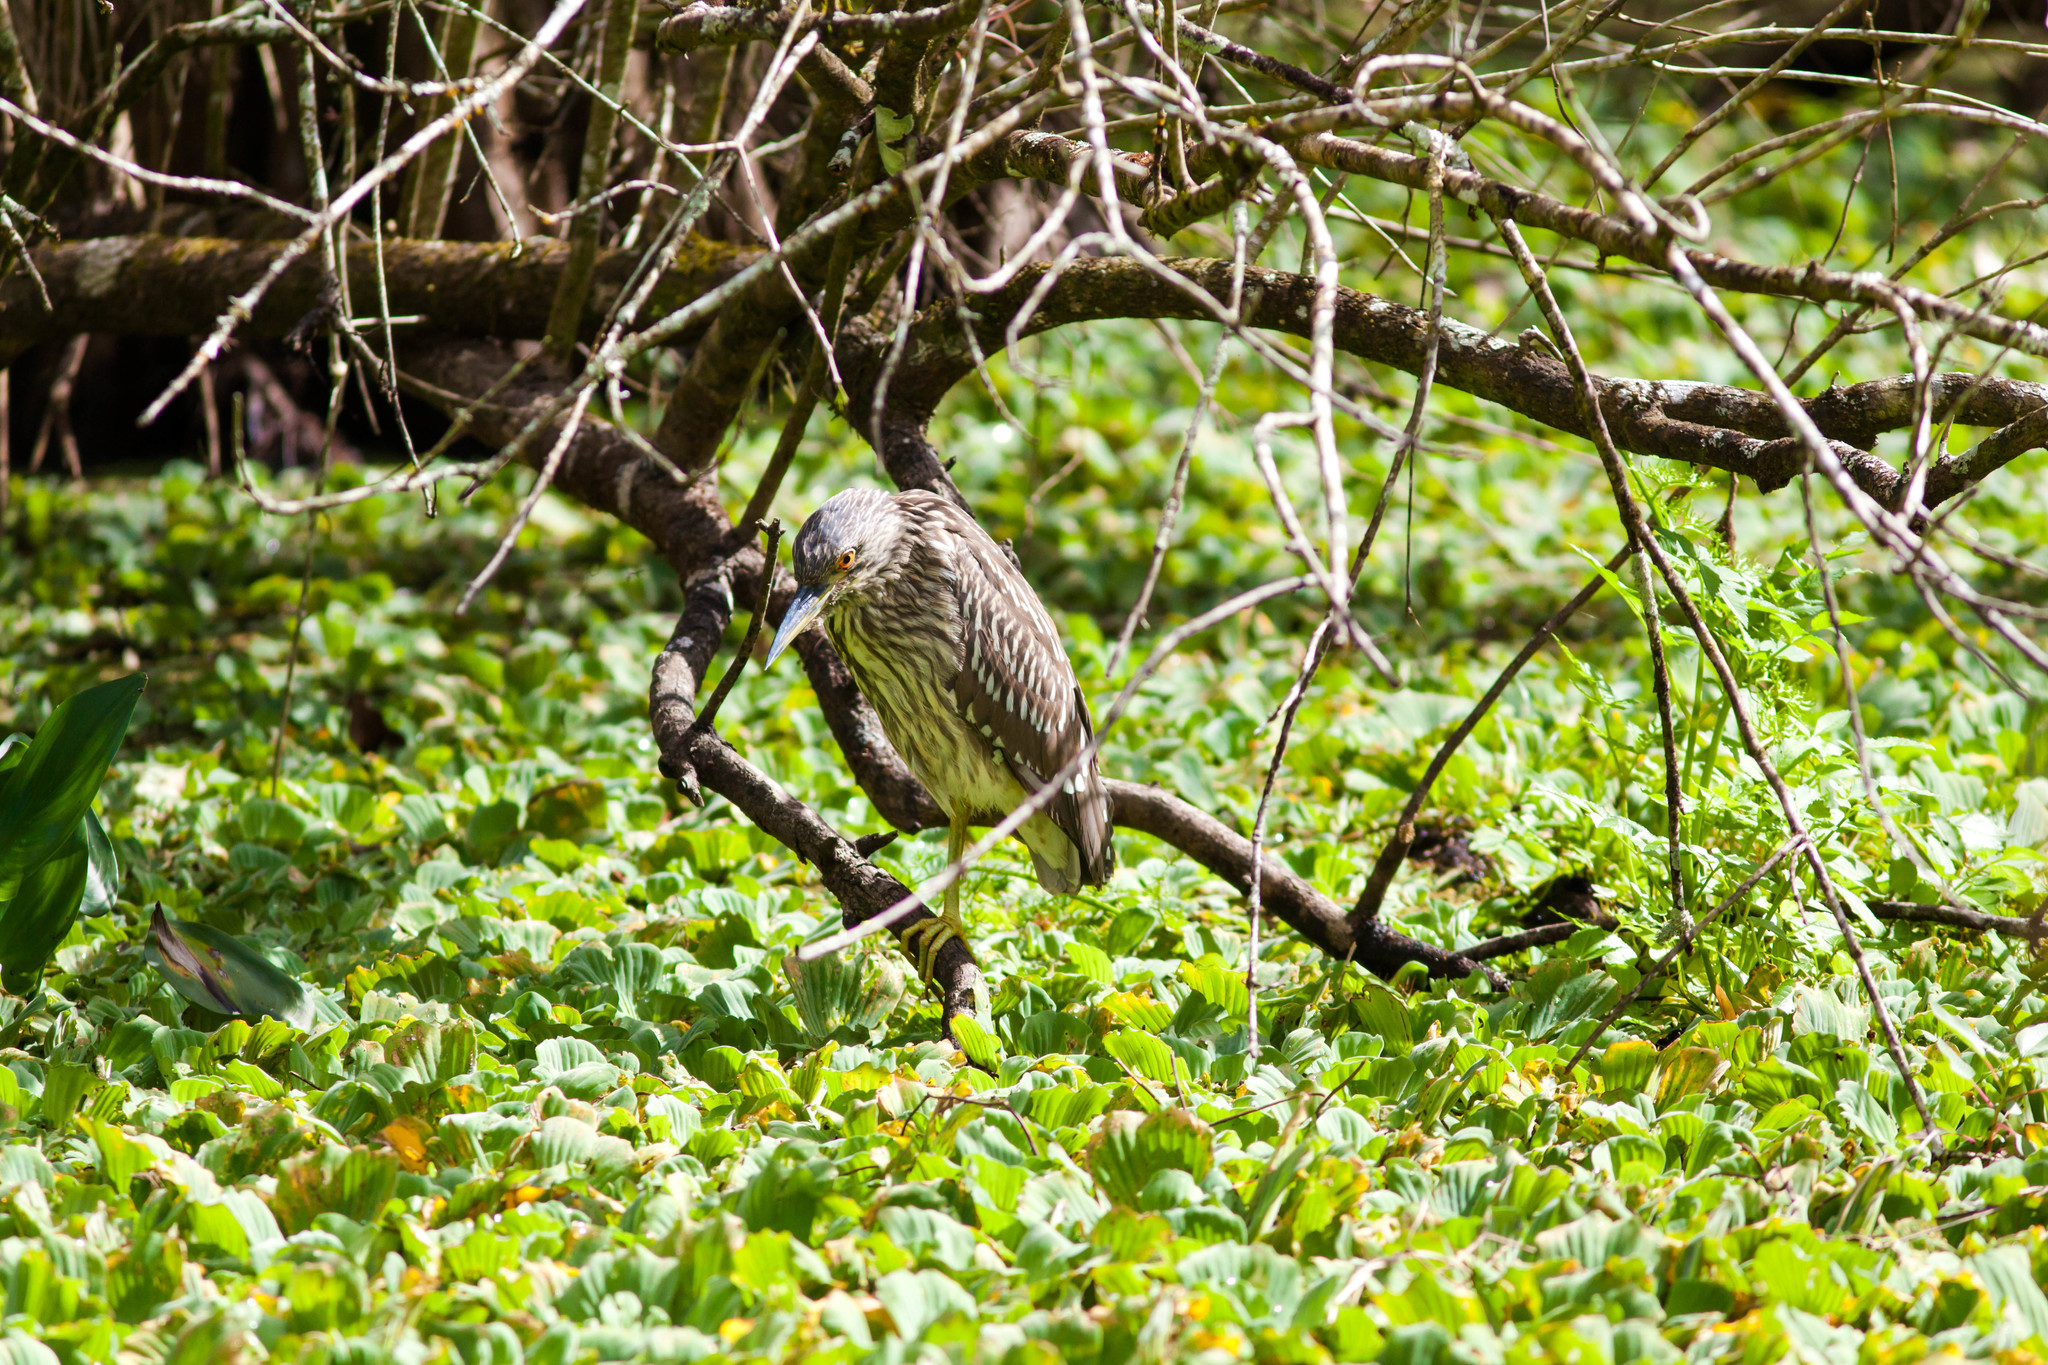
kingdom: Animalia
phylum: Chordata
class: Aves
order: Pelecaniformes
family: Ardeidae
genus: Nycticorax
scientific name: Nycticorax nycticorax
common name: Black-crowned night heron
